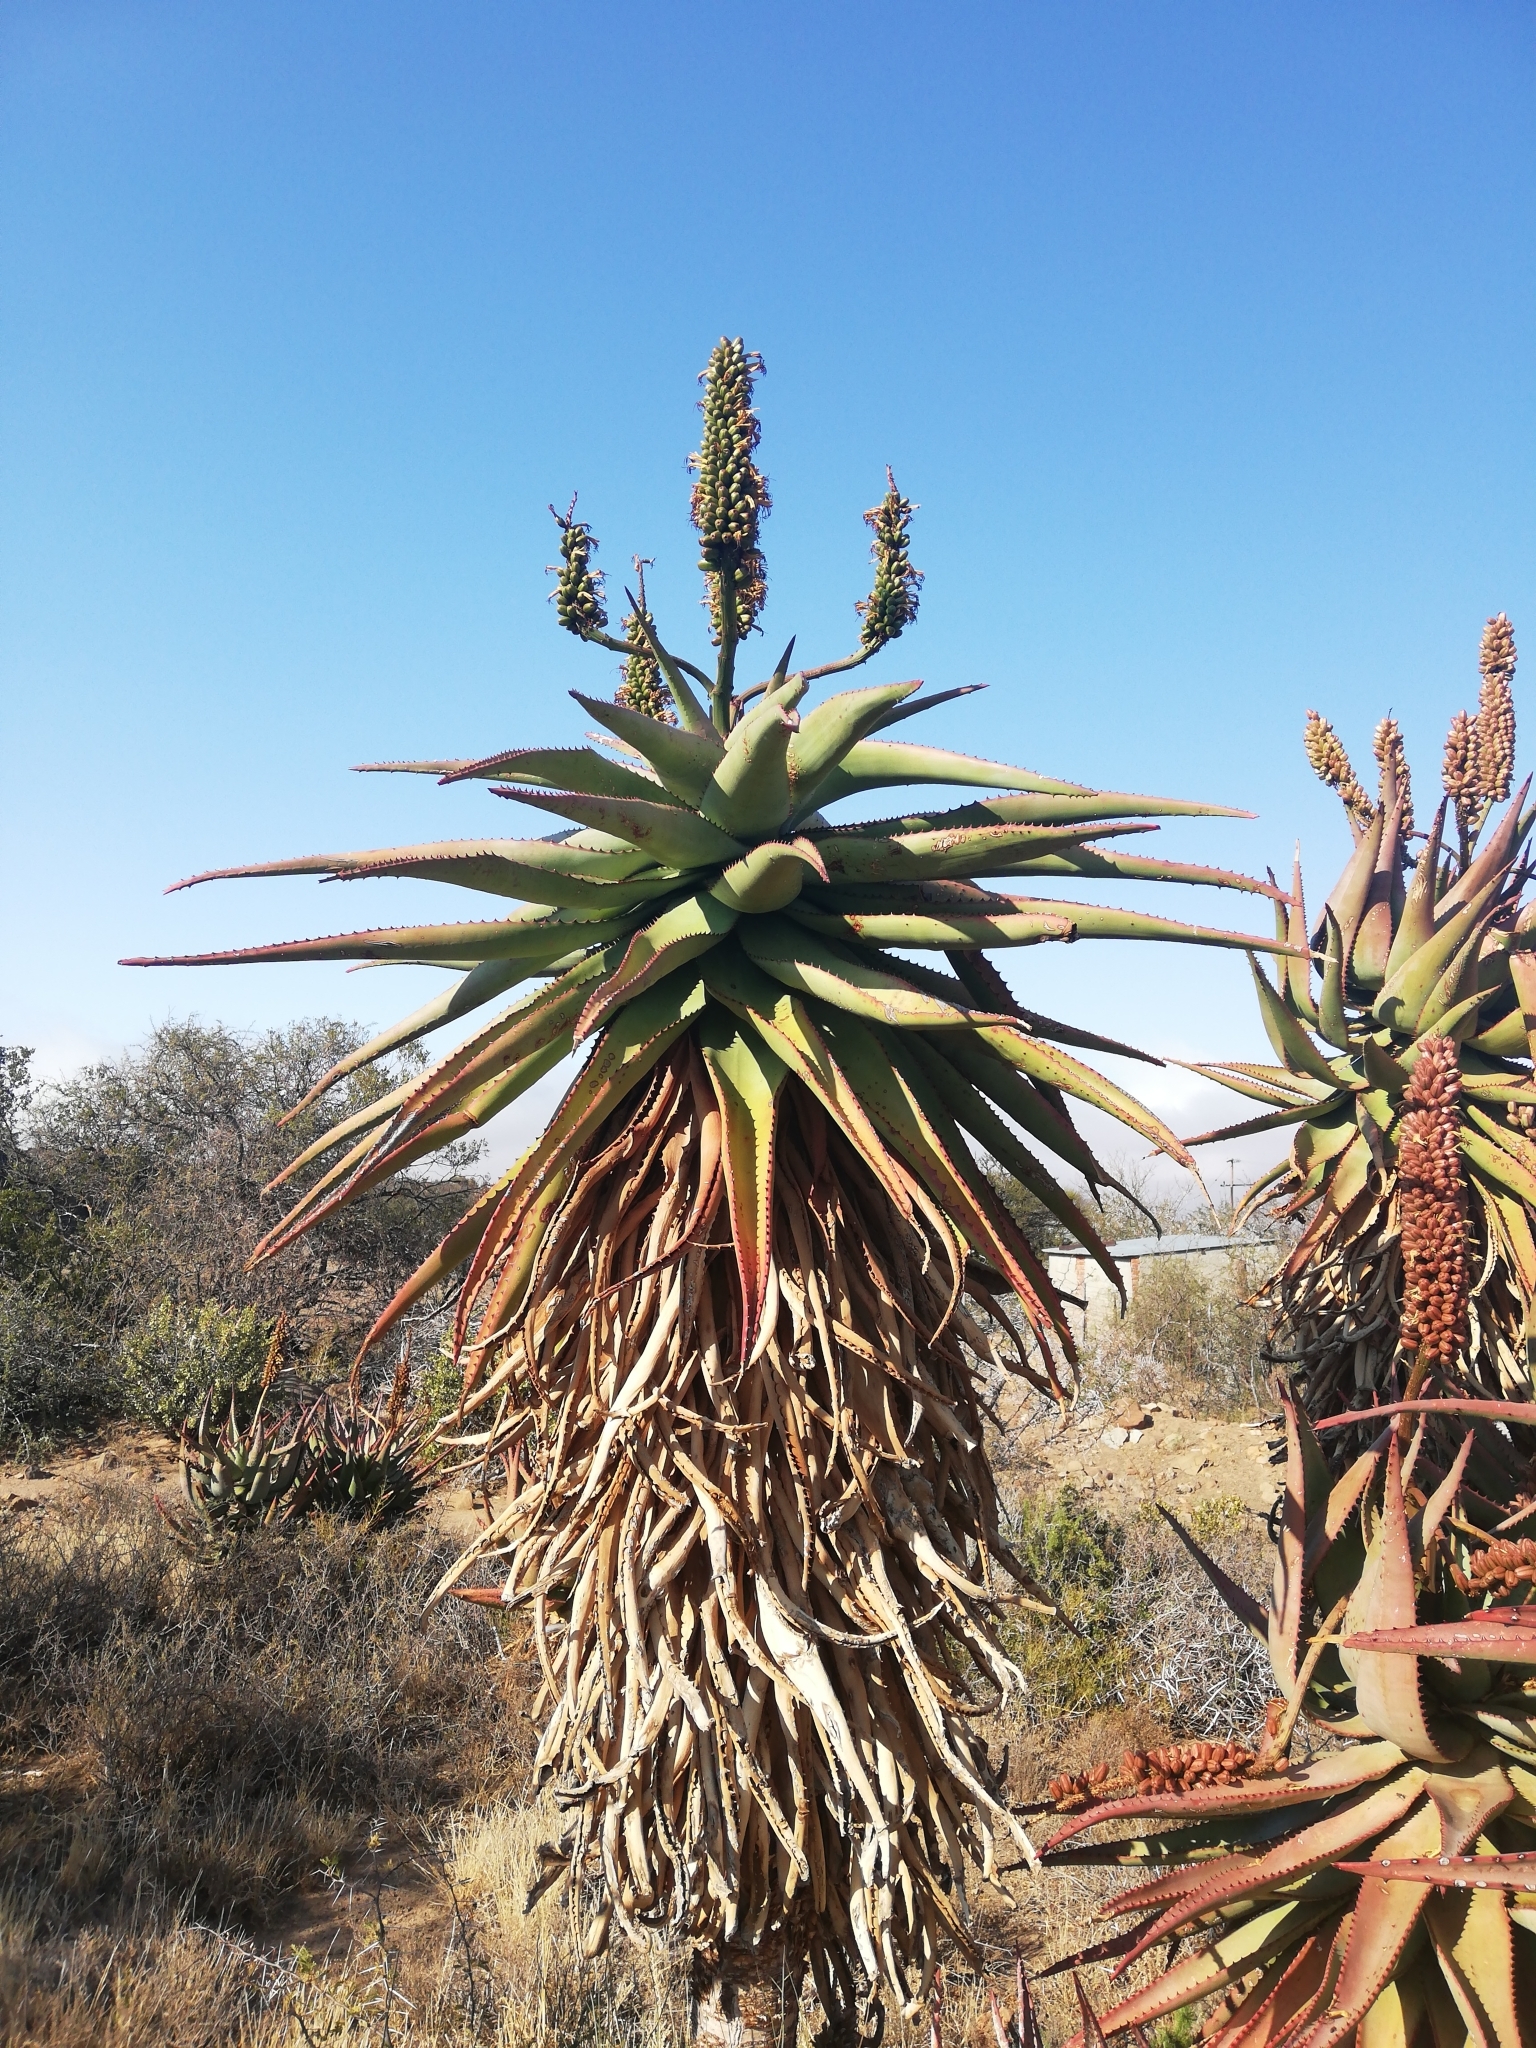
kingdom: Plantae
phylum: Tracheophyta
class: Liliopsida
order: Asparagales
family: Asphodelaceae
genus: Aloe
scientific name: Aloe ferox
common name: Bitter aloe
